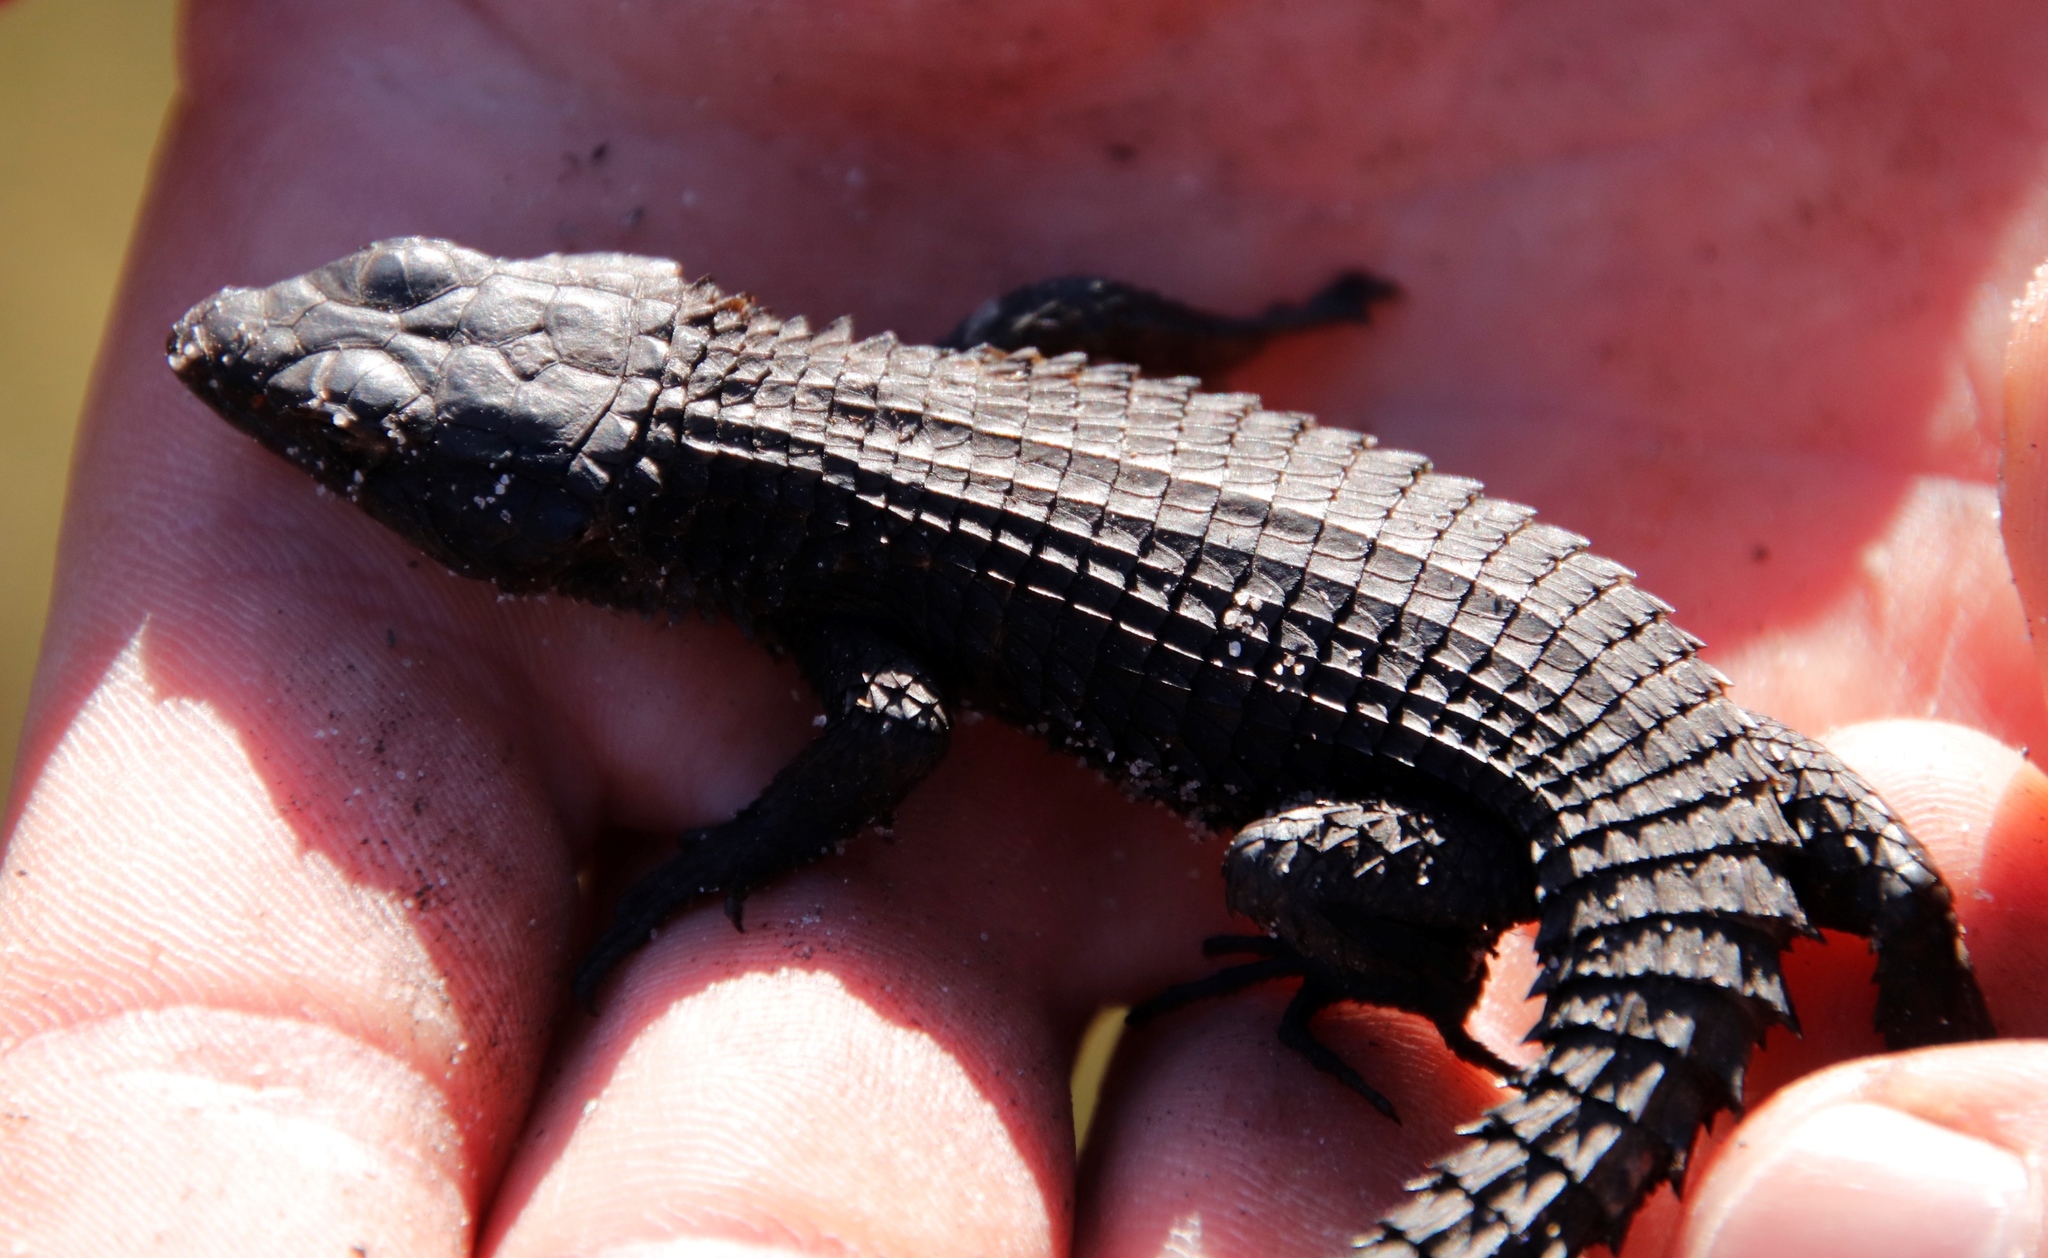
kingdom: Animalia
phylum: Chordata
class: Squamata
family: Cordylidae
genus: Cordylus
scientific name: Cordylus niger
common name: Black girdled lizard
